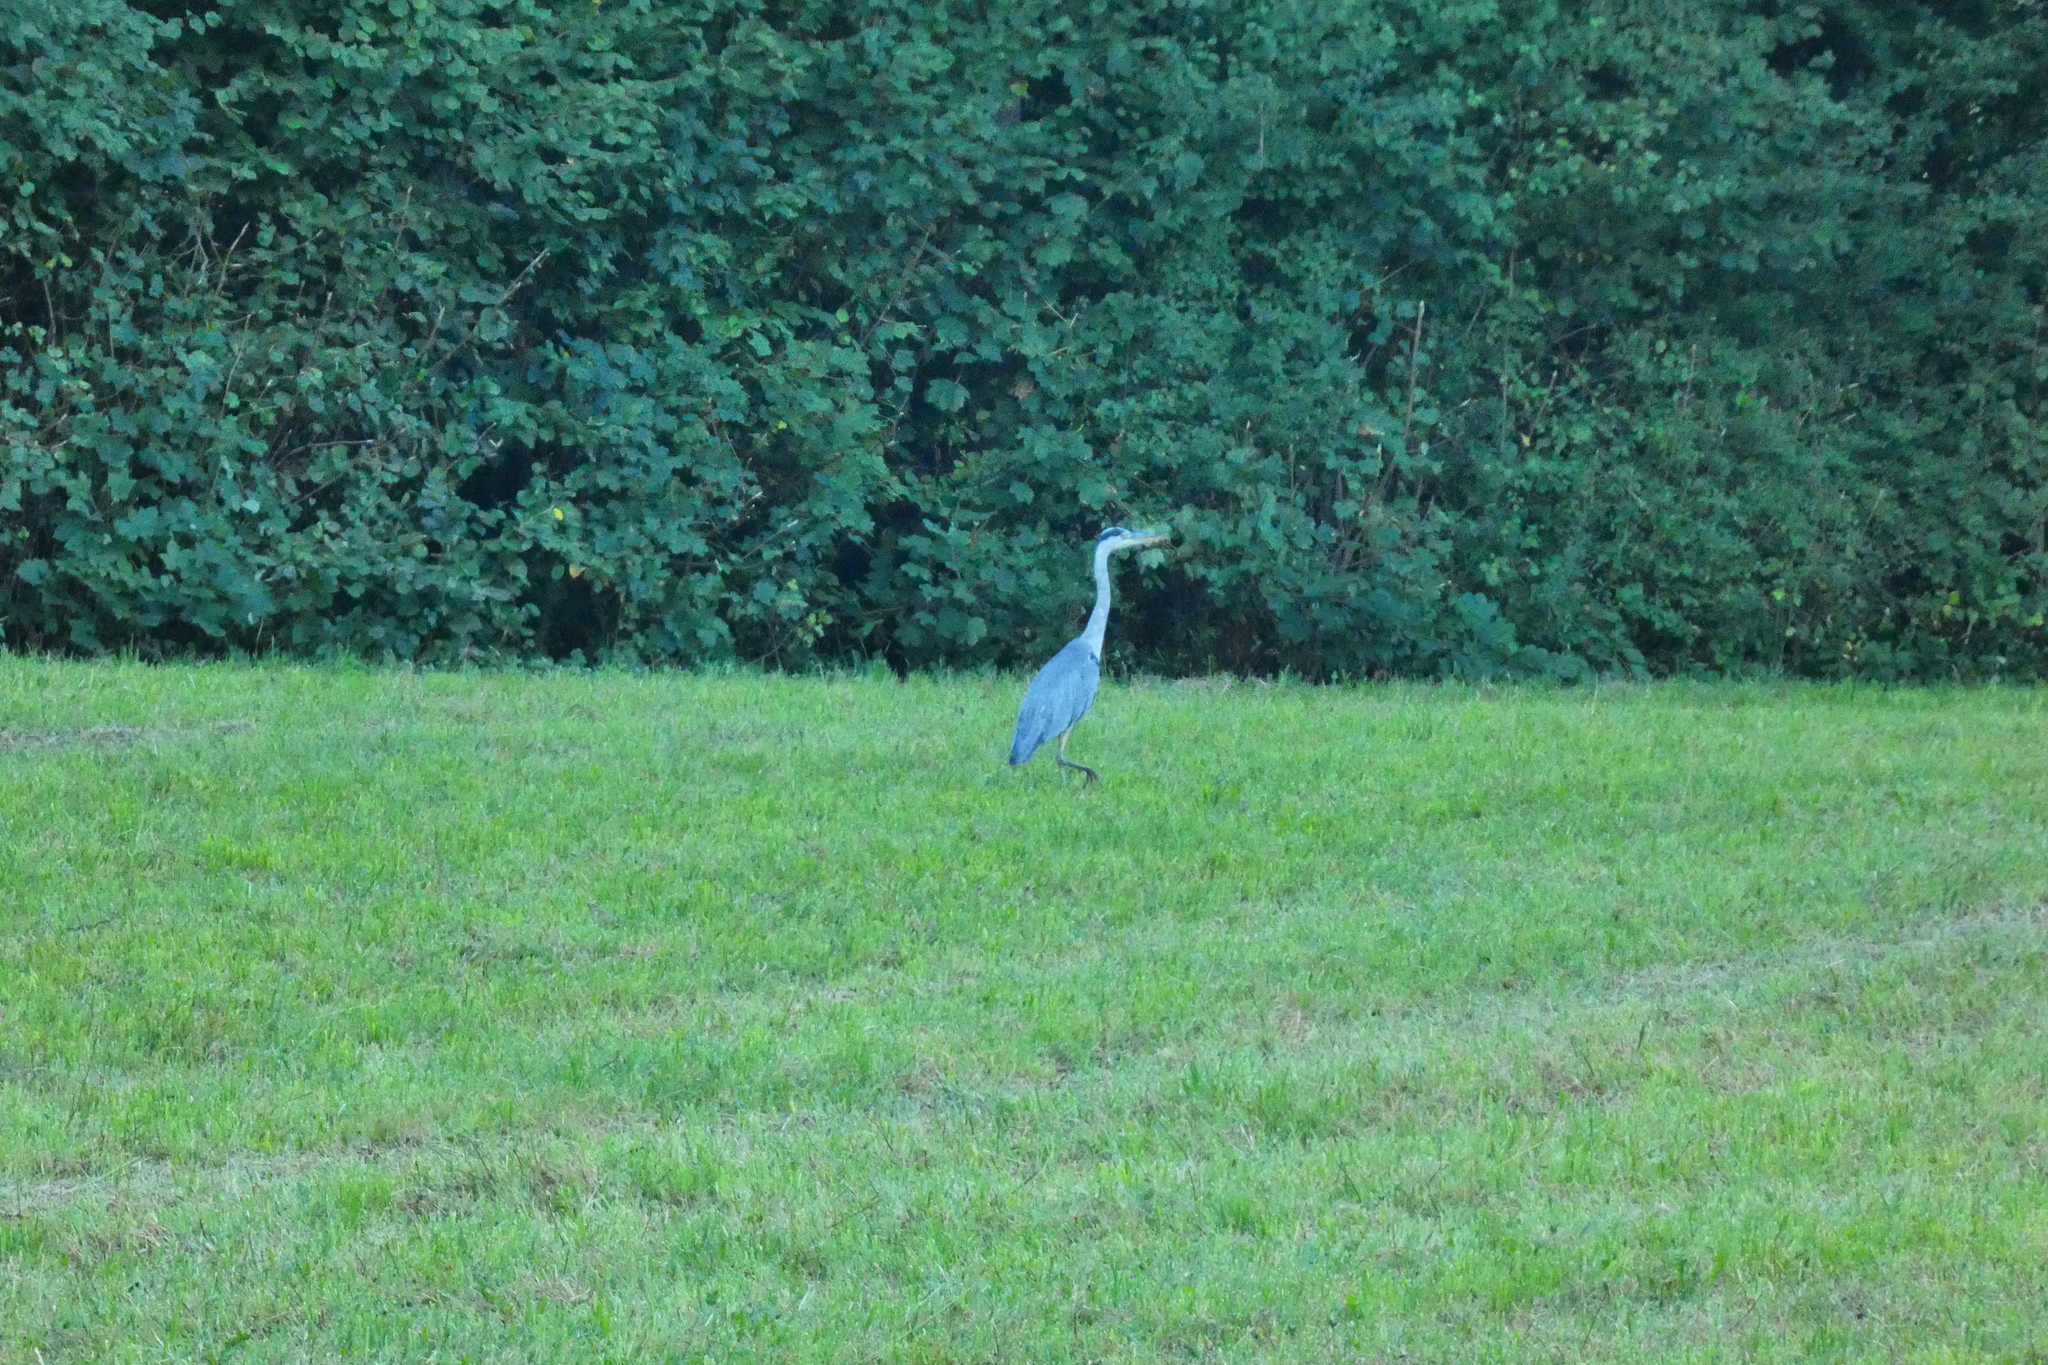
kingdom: Animalia
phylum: Chordata
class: Aves
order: Pelecaniformes
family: Ardeidae
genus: Ardea
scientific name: Ardea cinerea
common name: Grey heron
